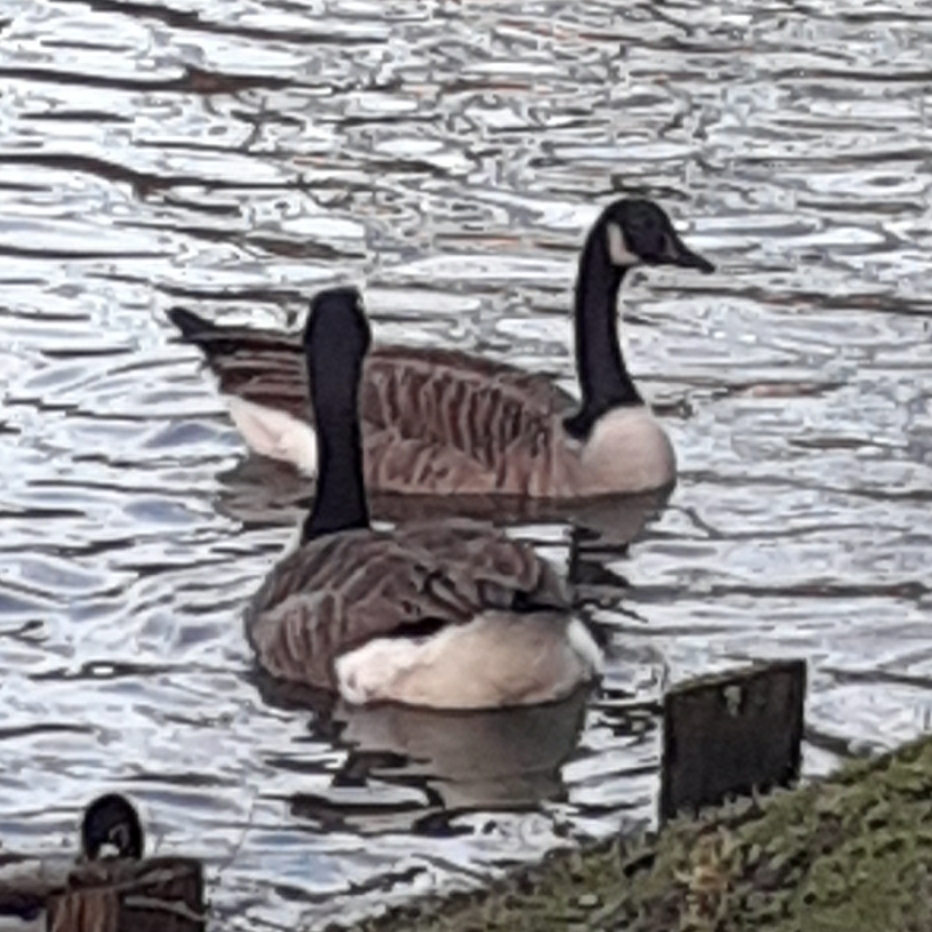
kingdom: Animalia
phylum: Chordata
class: Aves
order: Anseriformes
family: Anatidae
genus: Branta
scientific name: Branta canadensis
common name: Canada goose
